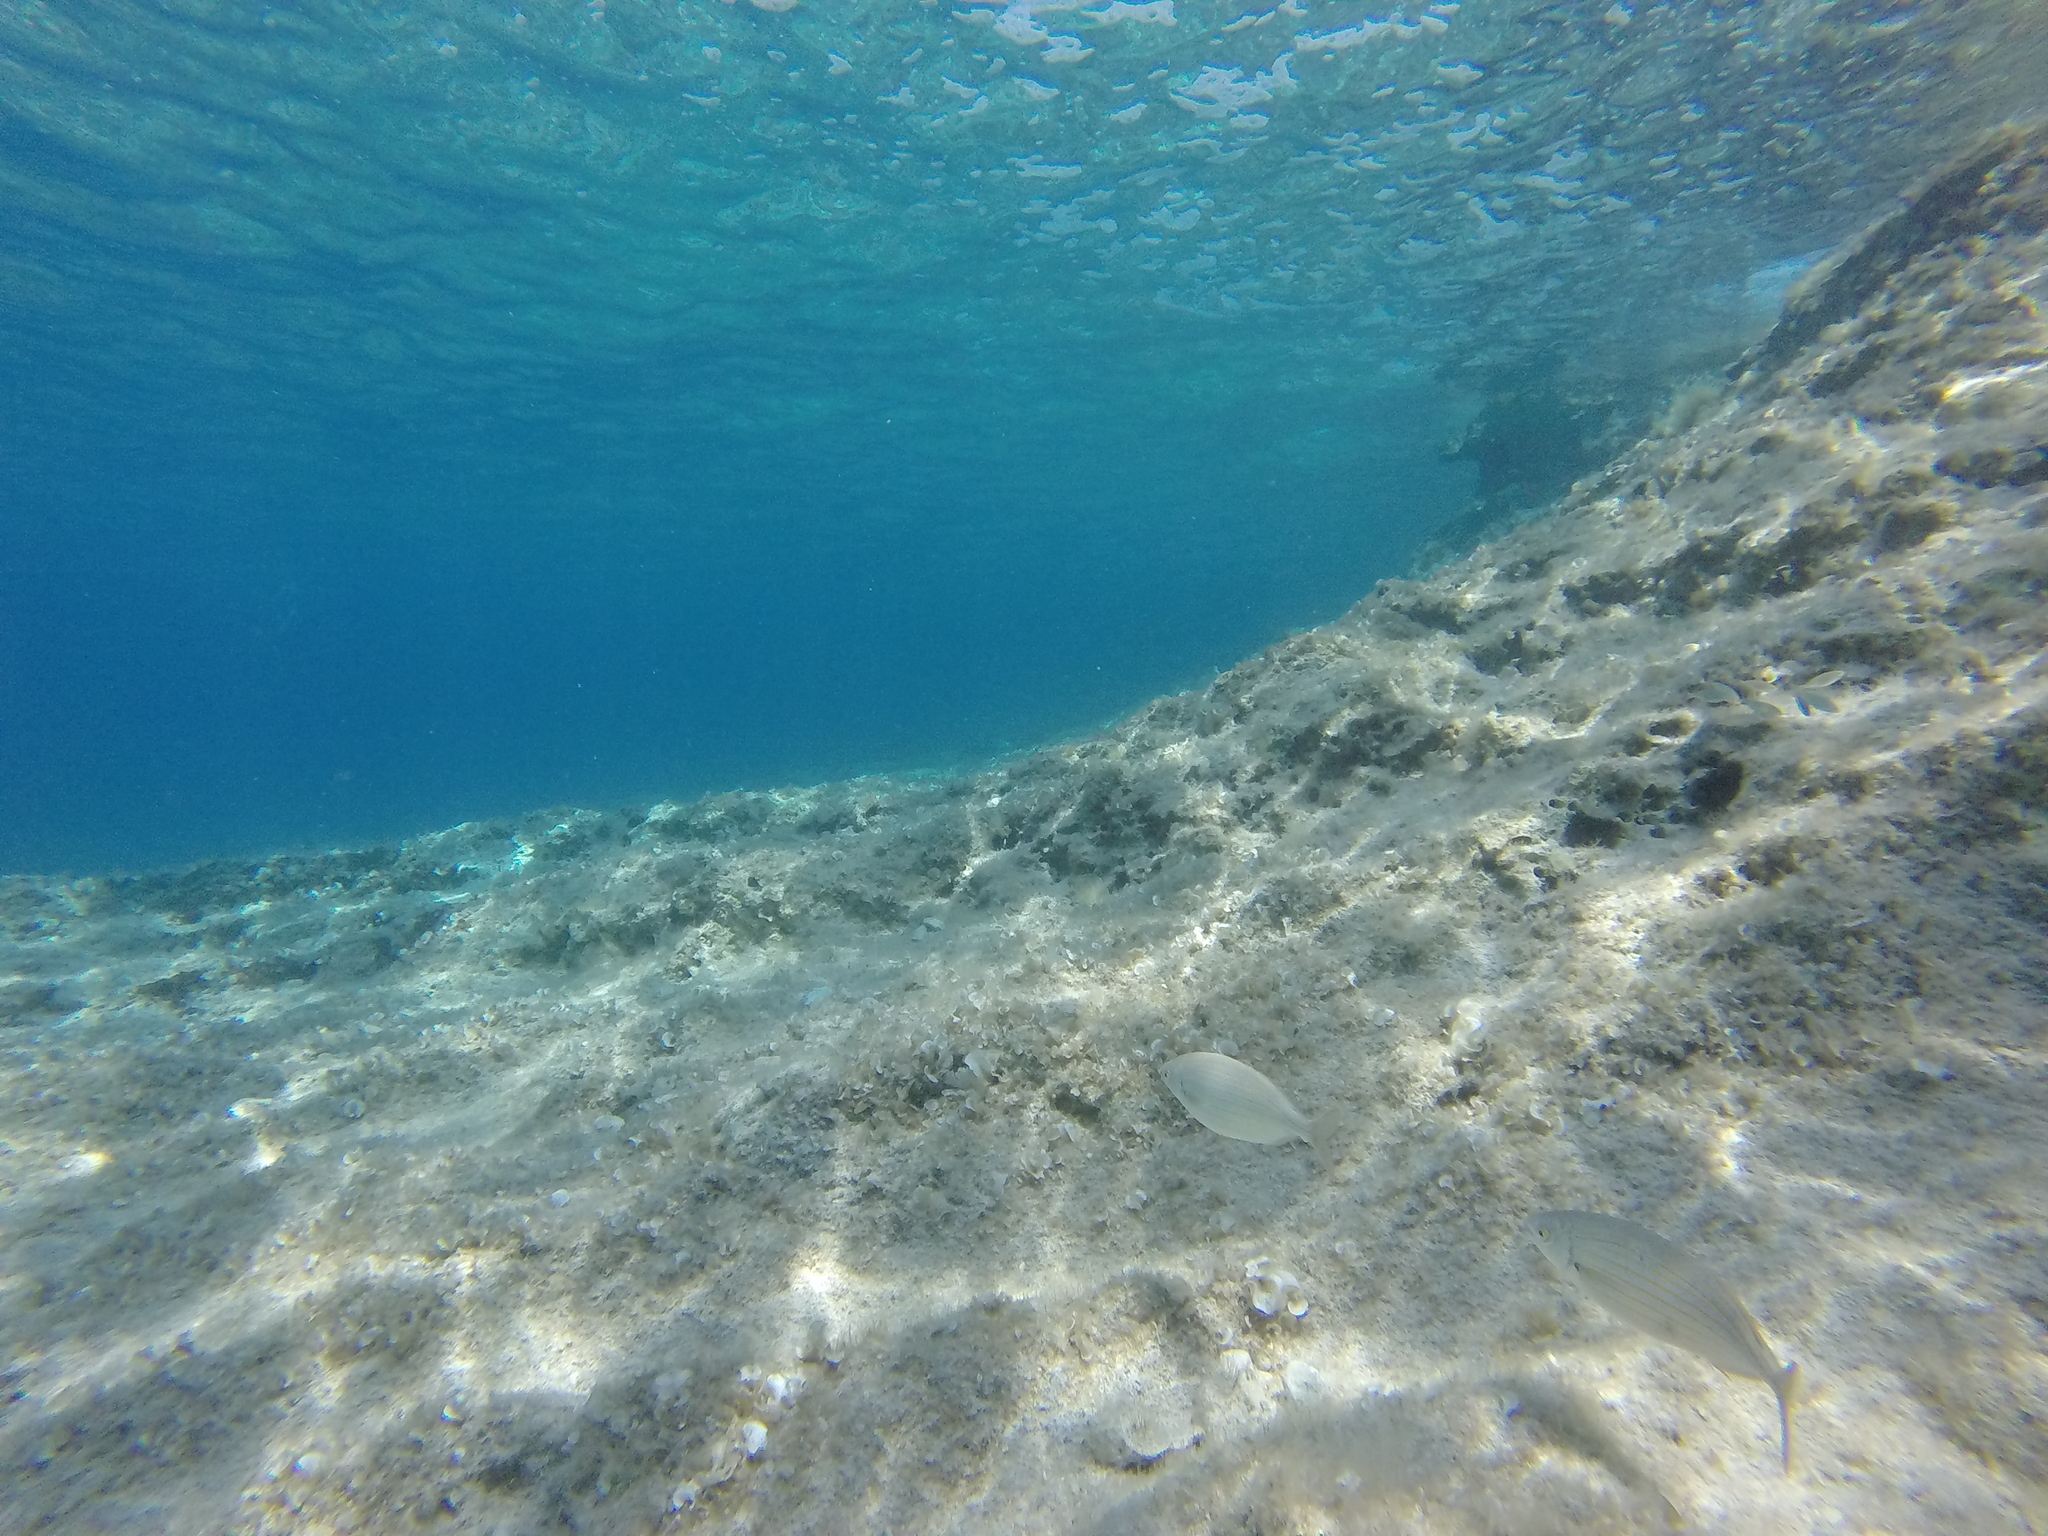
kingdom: Animalia
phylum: Chordata
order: Perciformes
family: Sparidae
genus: Sarpa
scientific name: Sarpa salpa
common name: Salema
